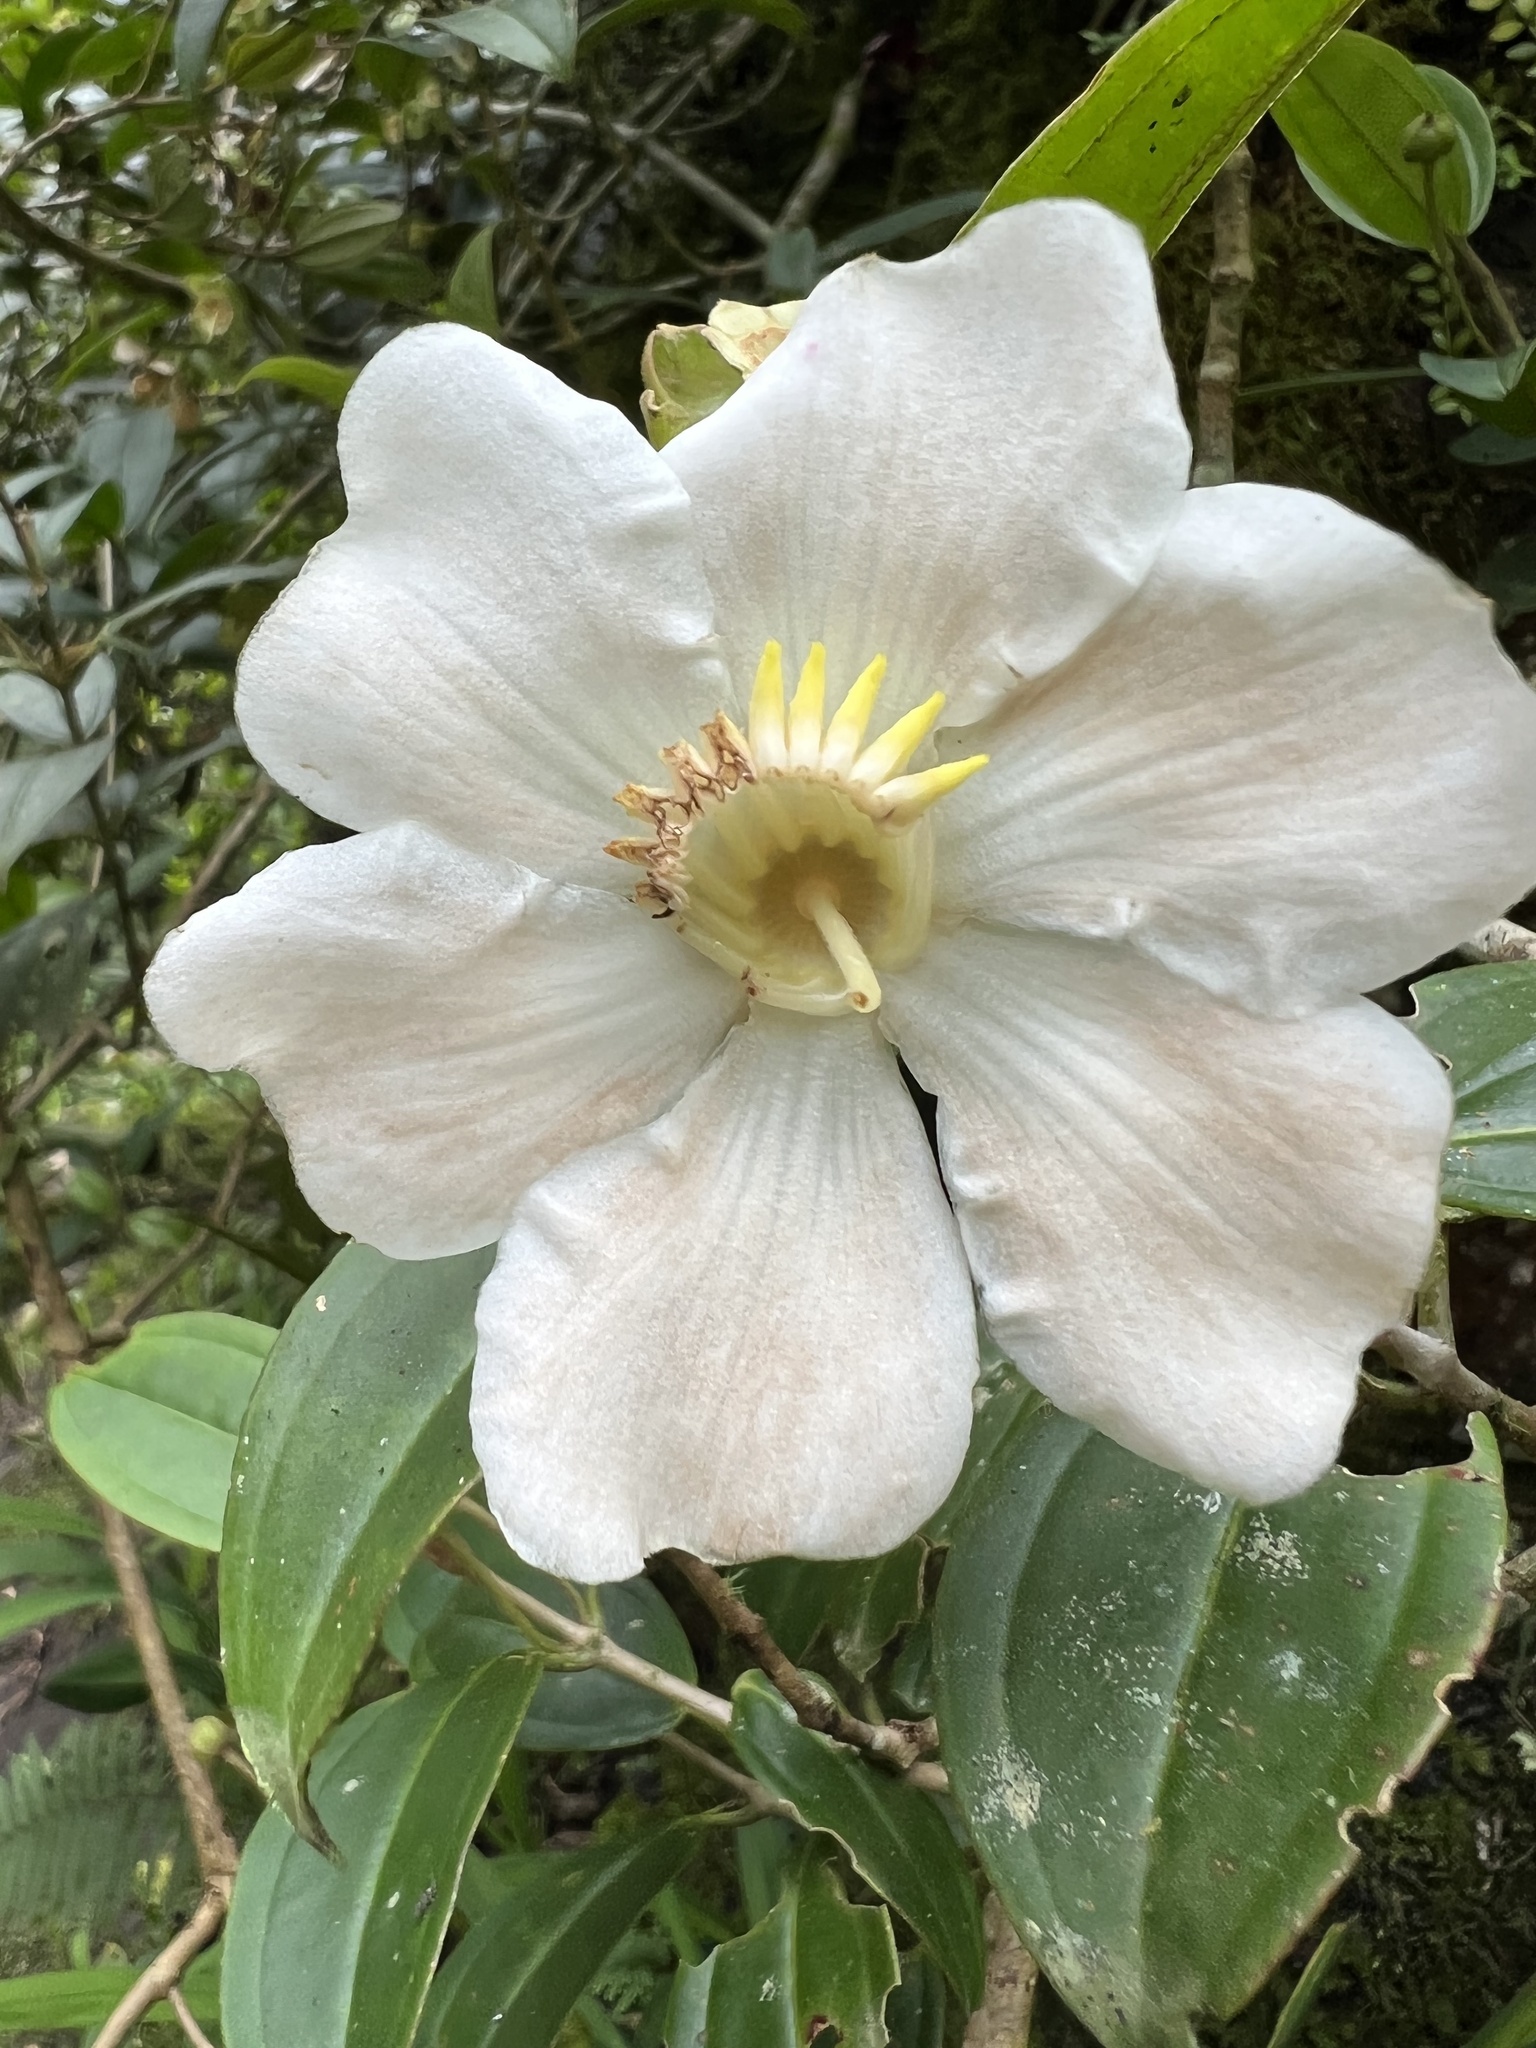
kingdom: Plantae
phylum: Tracheophyta
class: Magnoliopsida
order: Myrtales
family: Melastomataceae
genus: Blakea
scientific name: Blakea granatensis
